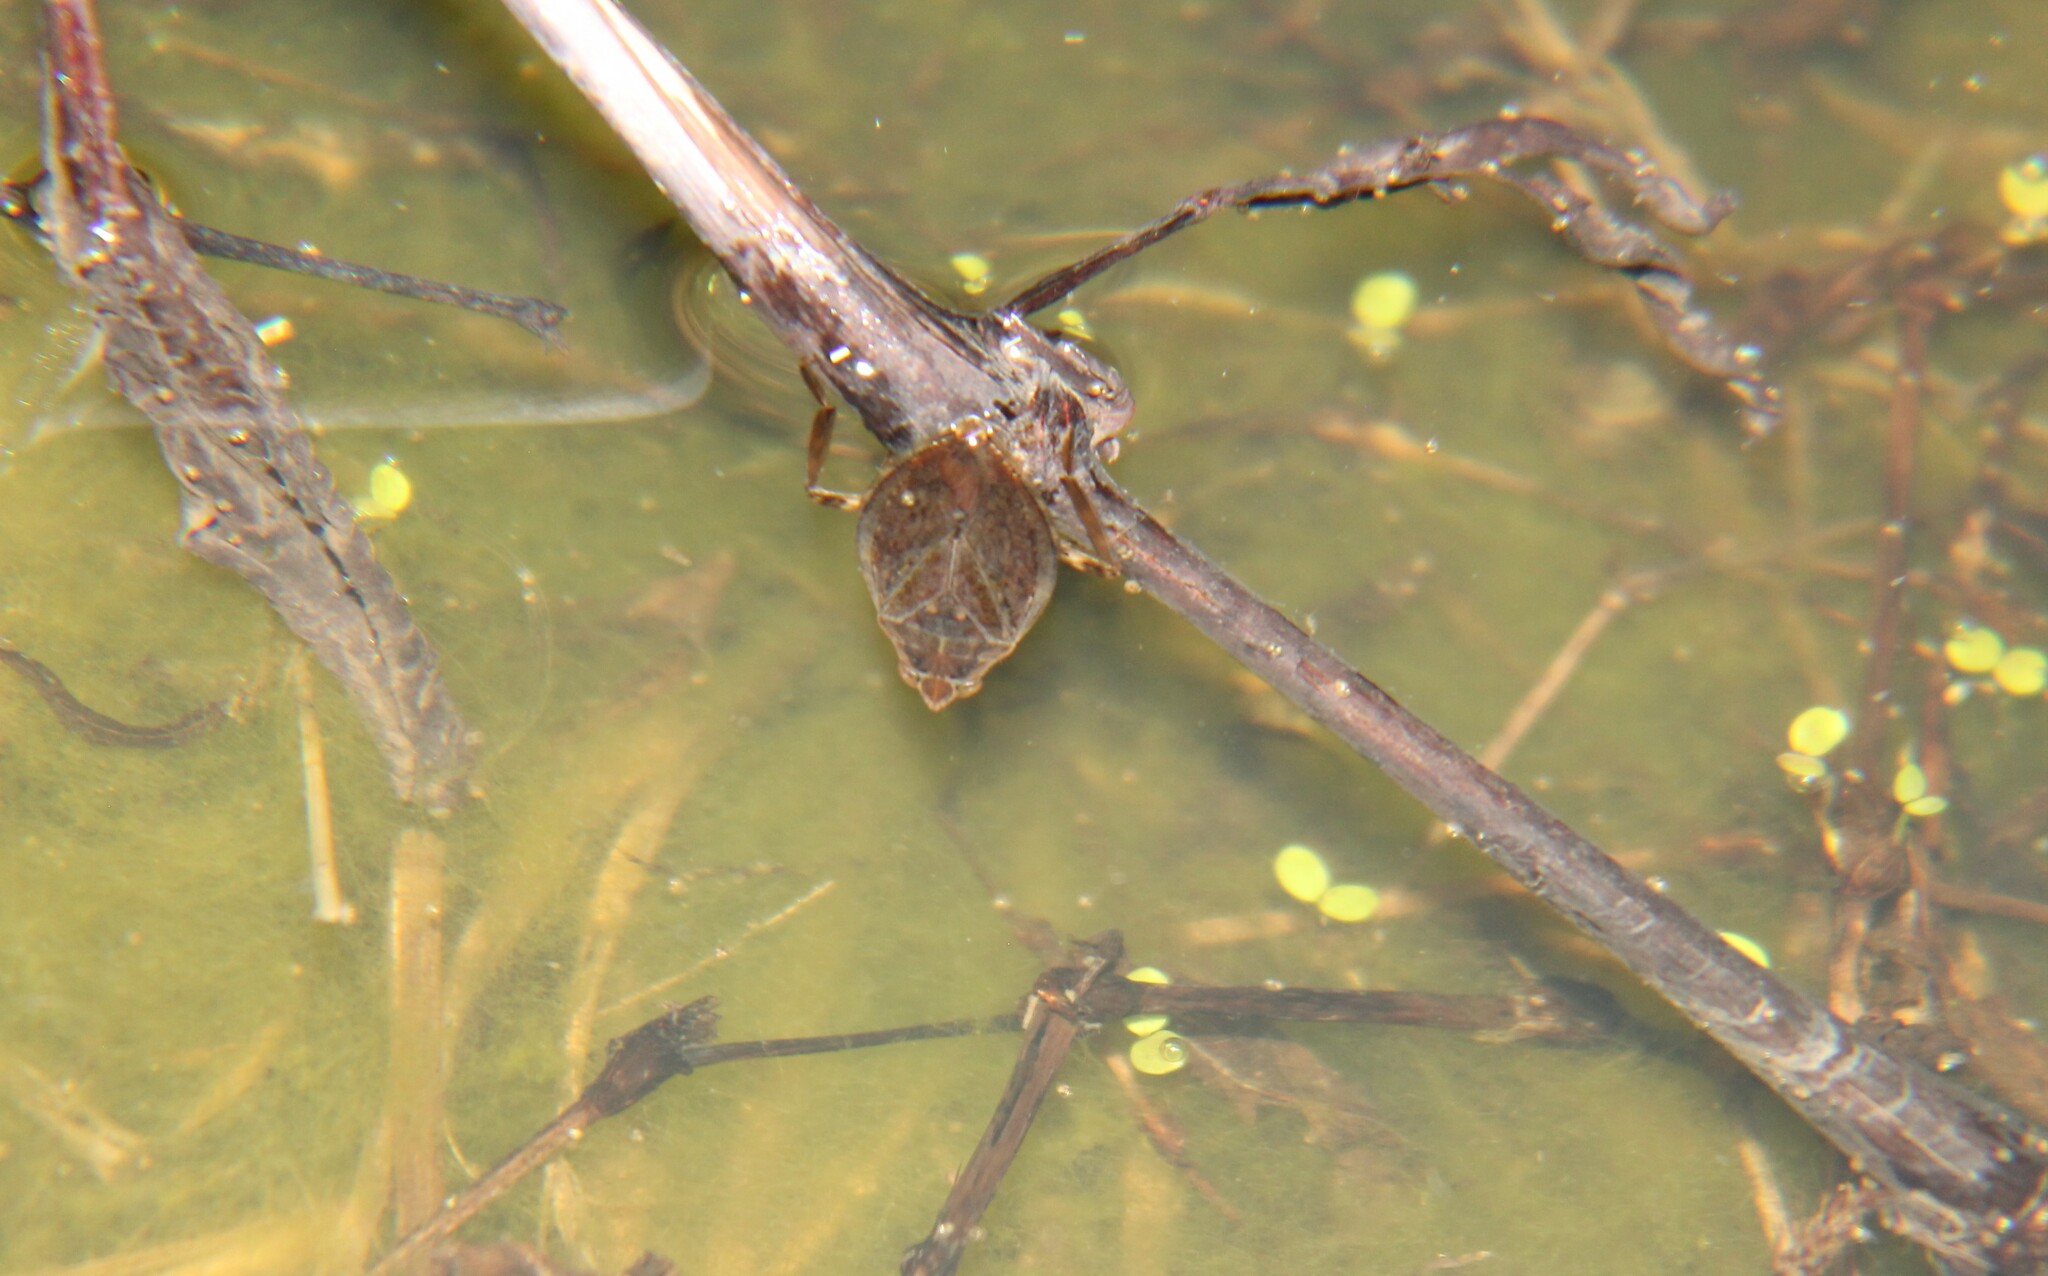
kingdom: Animalia
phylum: Arthropoda
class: Insecta
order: Hemiptera
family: Belostomatidae
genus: Belostoma
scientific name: Belostoma
